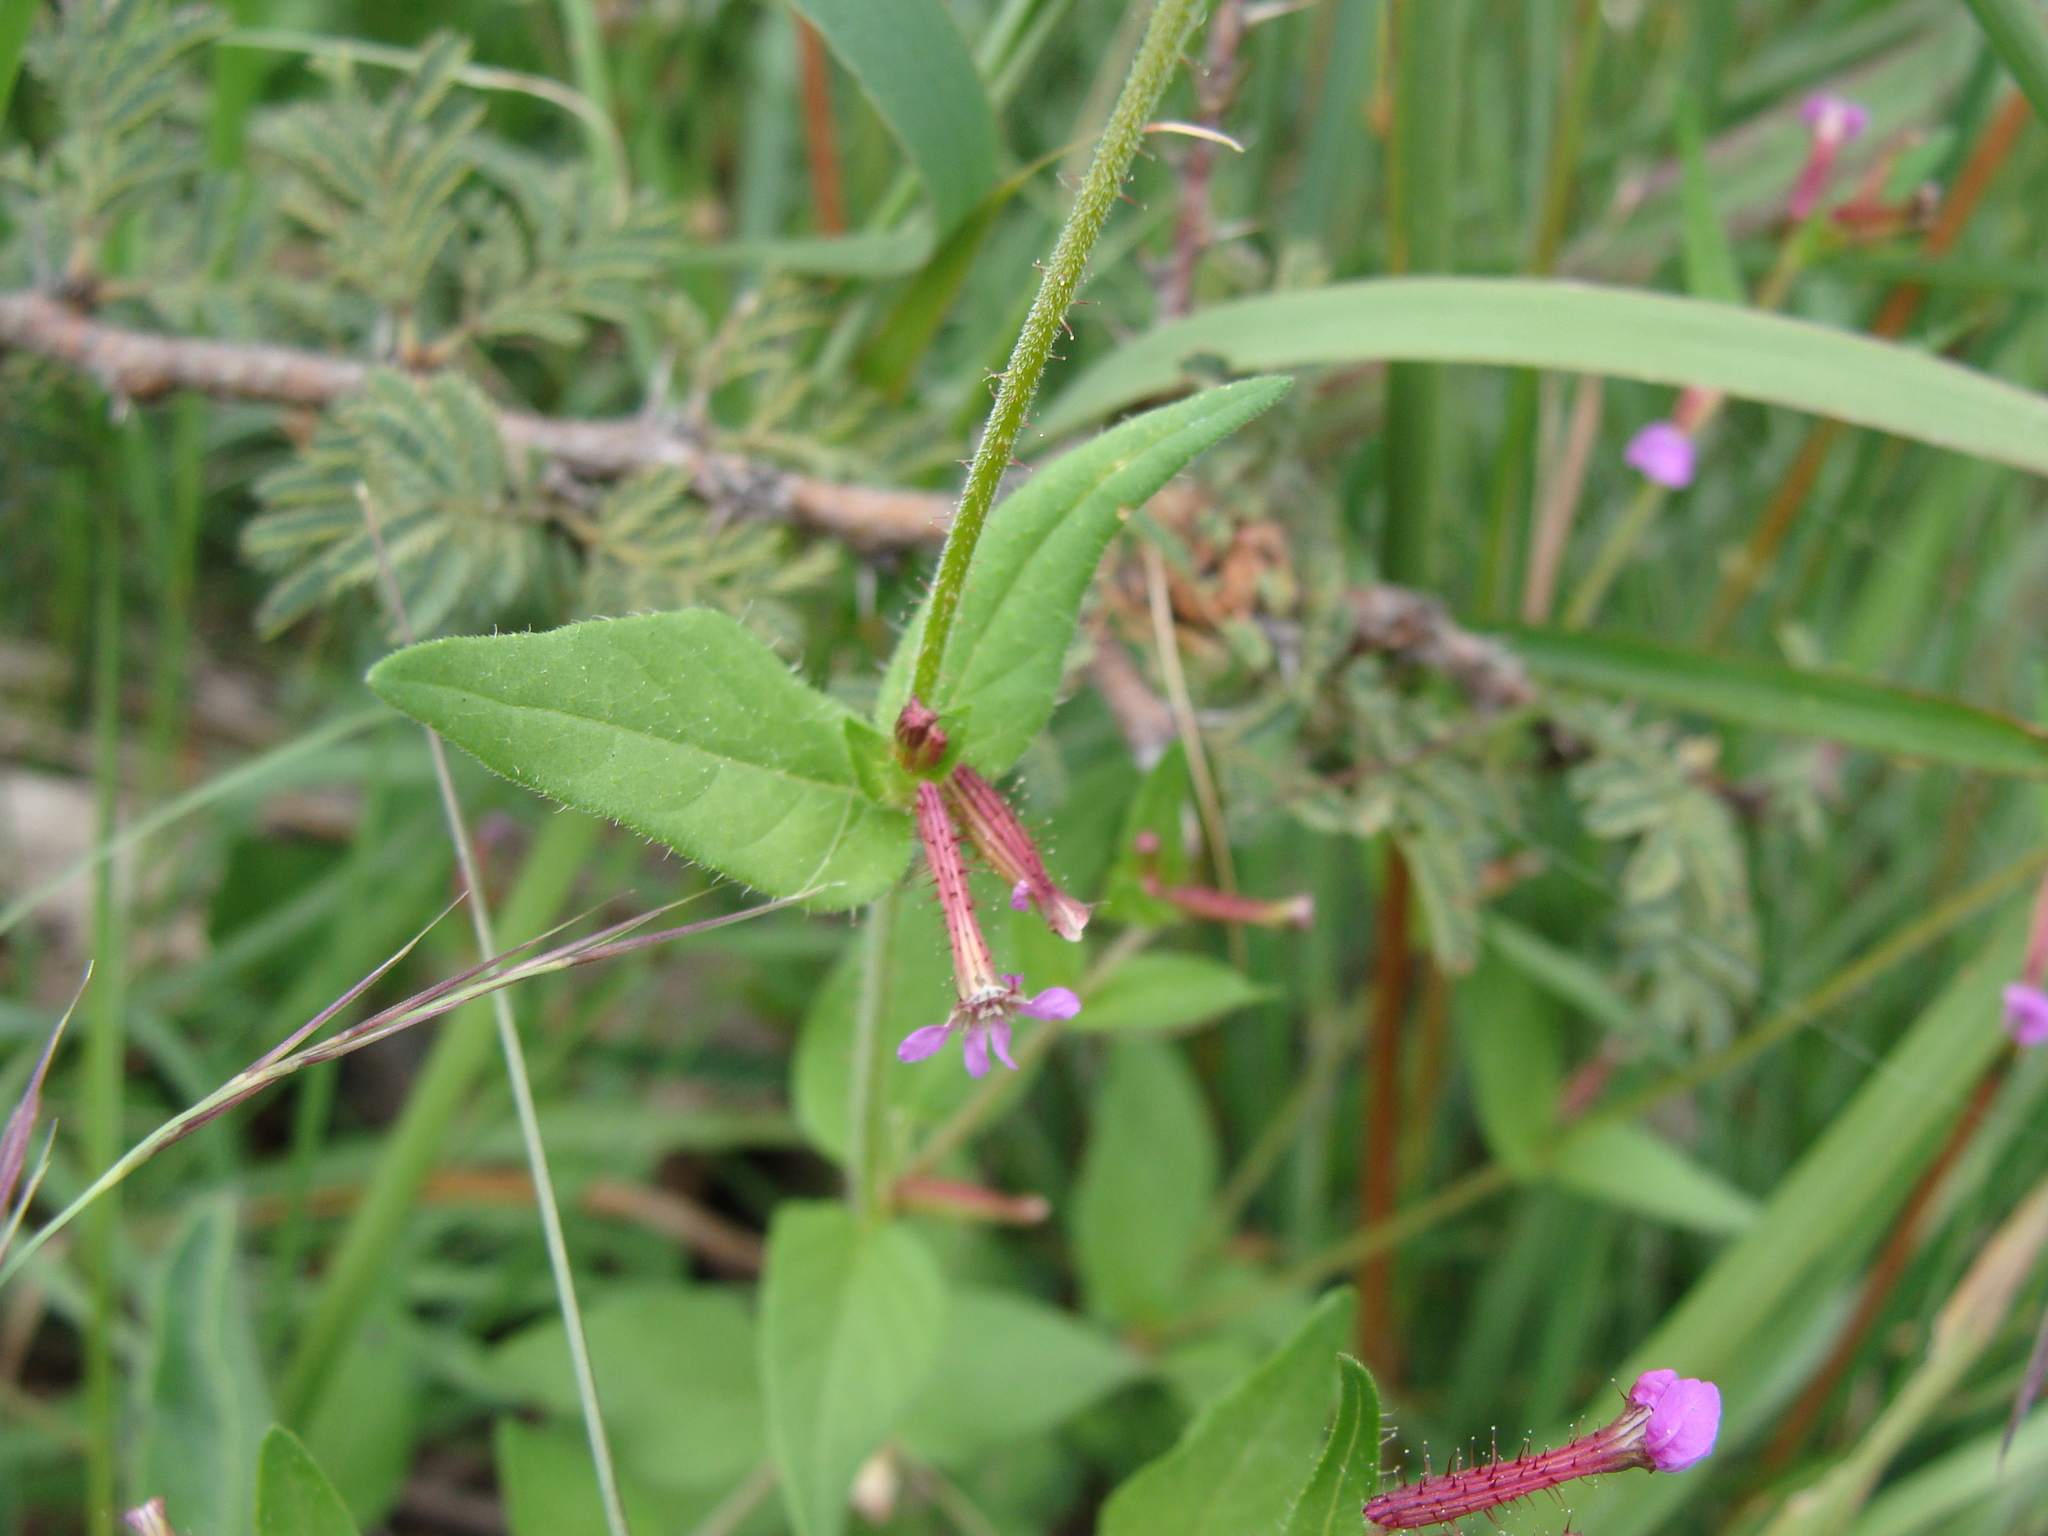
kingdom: Plantae
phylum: Tracheophyta
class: Magnoliopsida
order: Myrtales
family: Lythraceae
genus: Cuphea
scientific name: Cuphea wrightii
